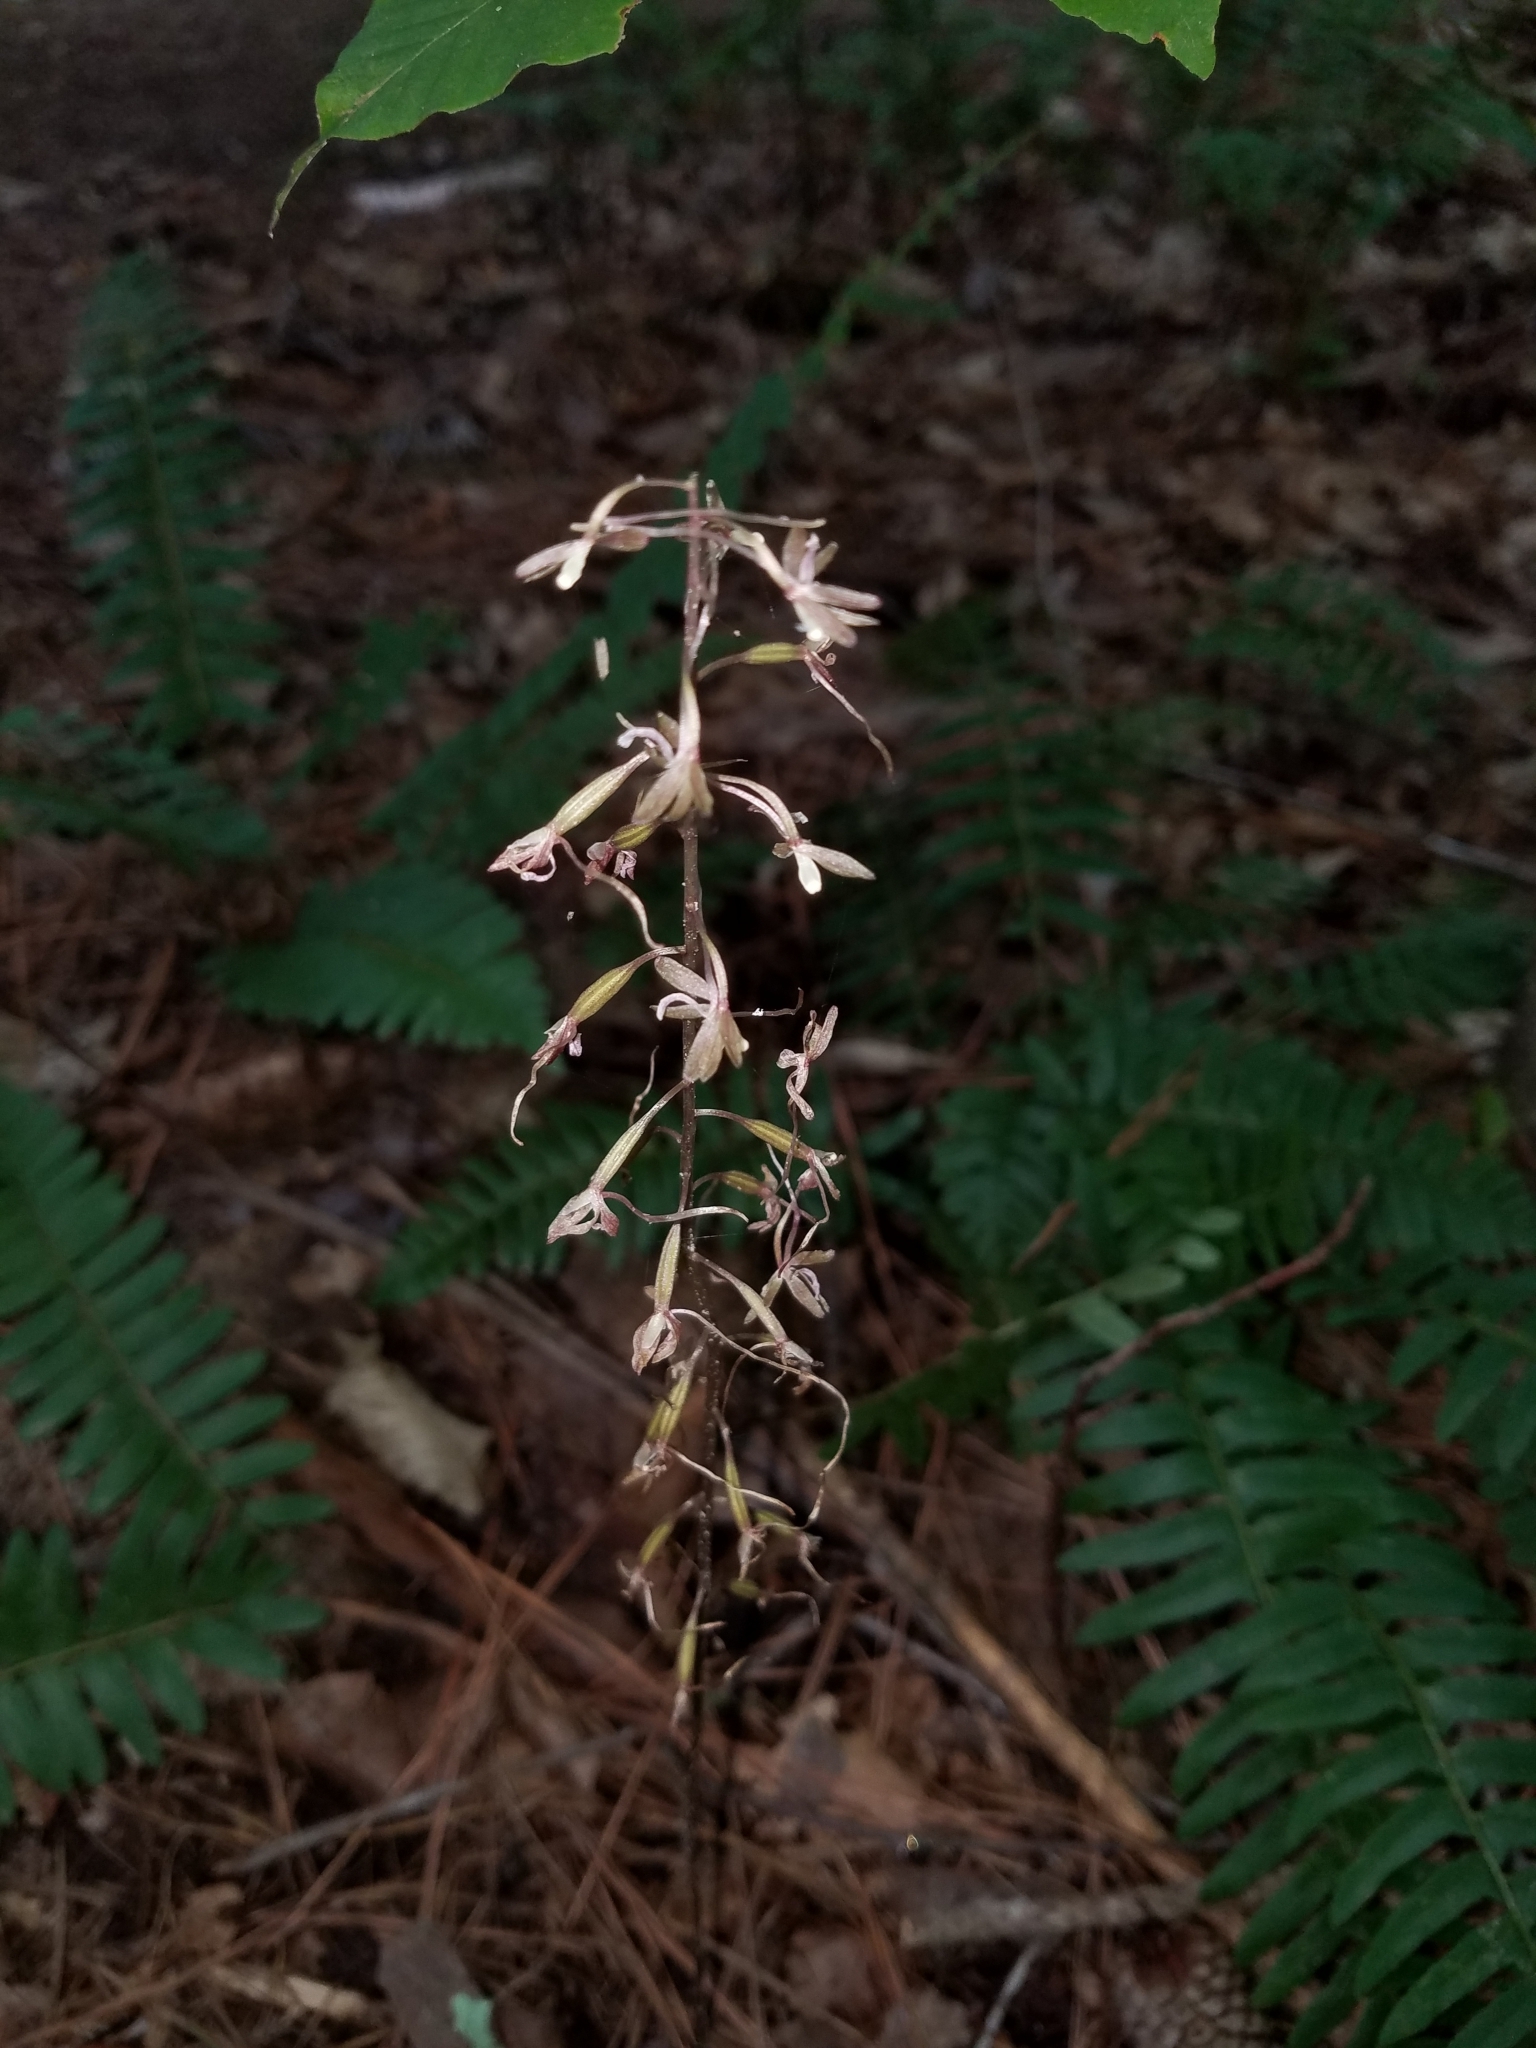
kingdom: Plantae
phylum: Tracheophyta
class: Liliopsida
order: Asparagales
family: Orchidaceae
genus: Tipularia
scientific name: Tipularia discolor
